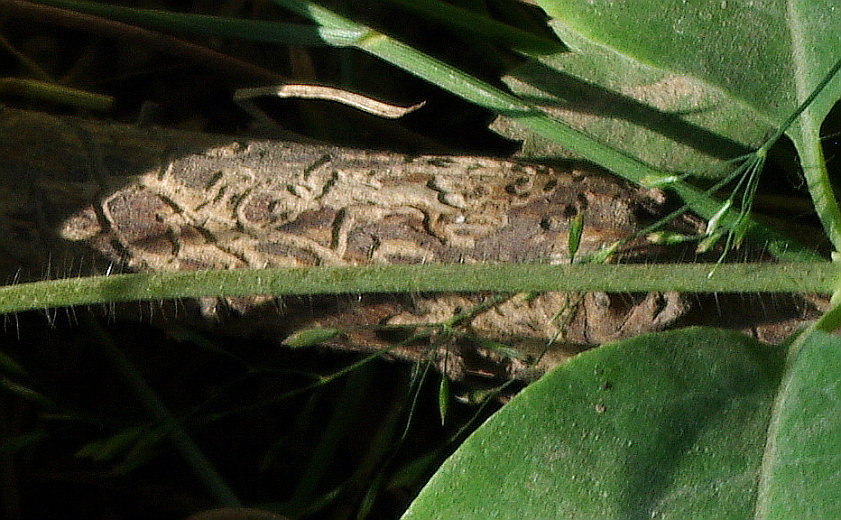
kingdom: Animalia
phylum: Arthropoda
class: Insecta
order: Coleoptera
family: Curculionidae
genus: Ips
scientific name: Ips typographus
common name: Eight-toothed spruce bark beetle
